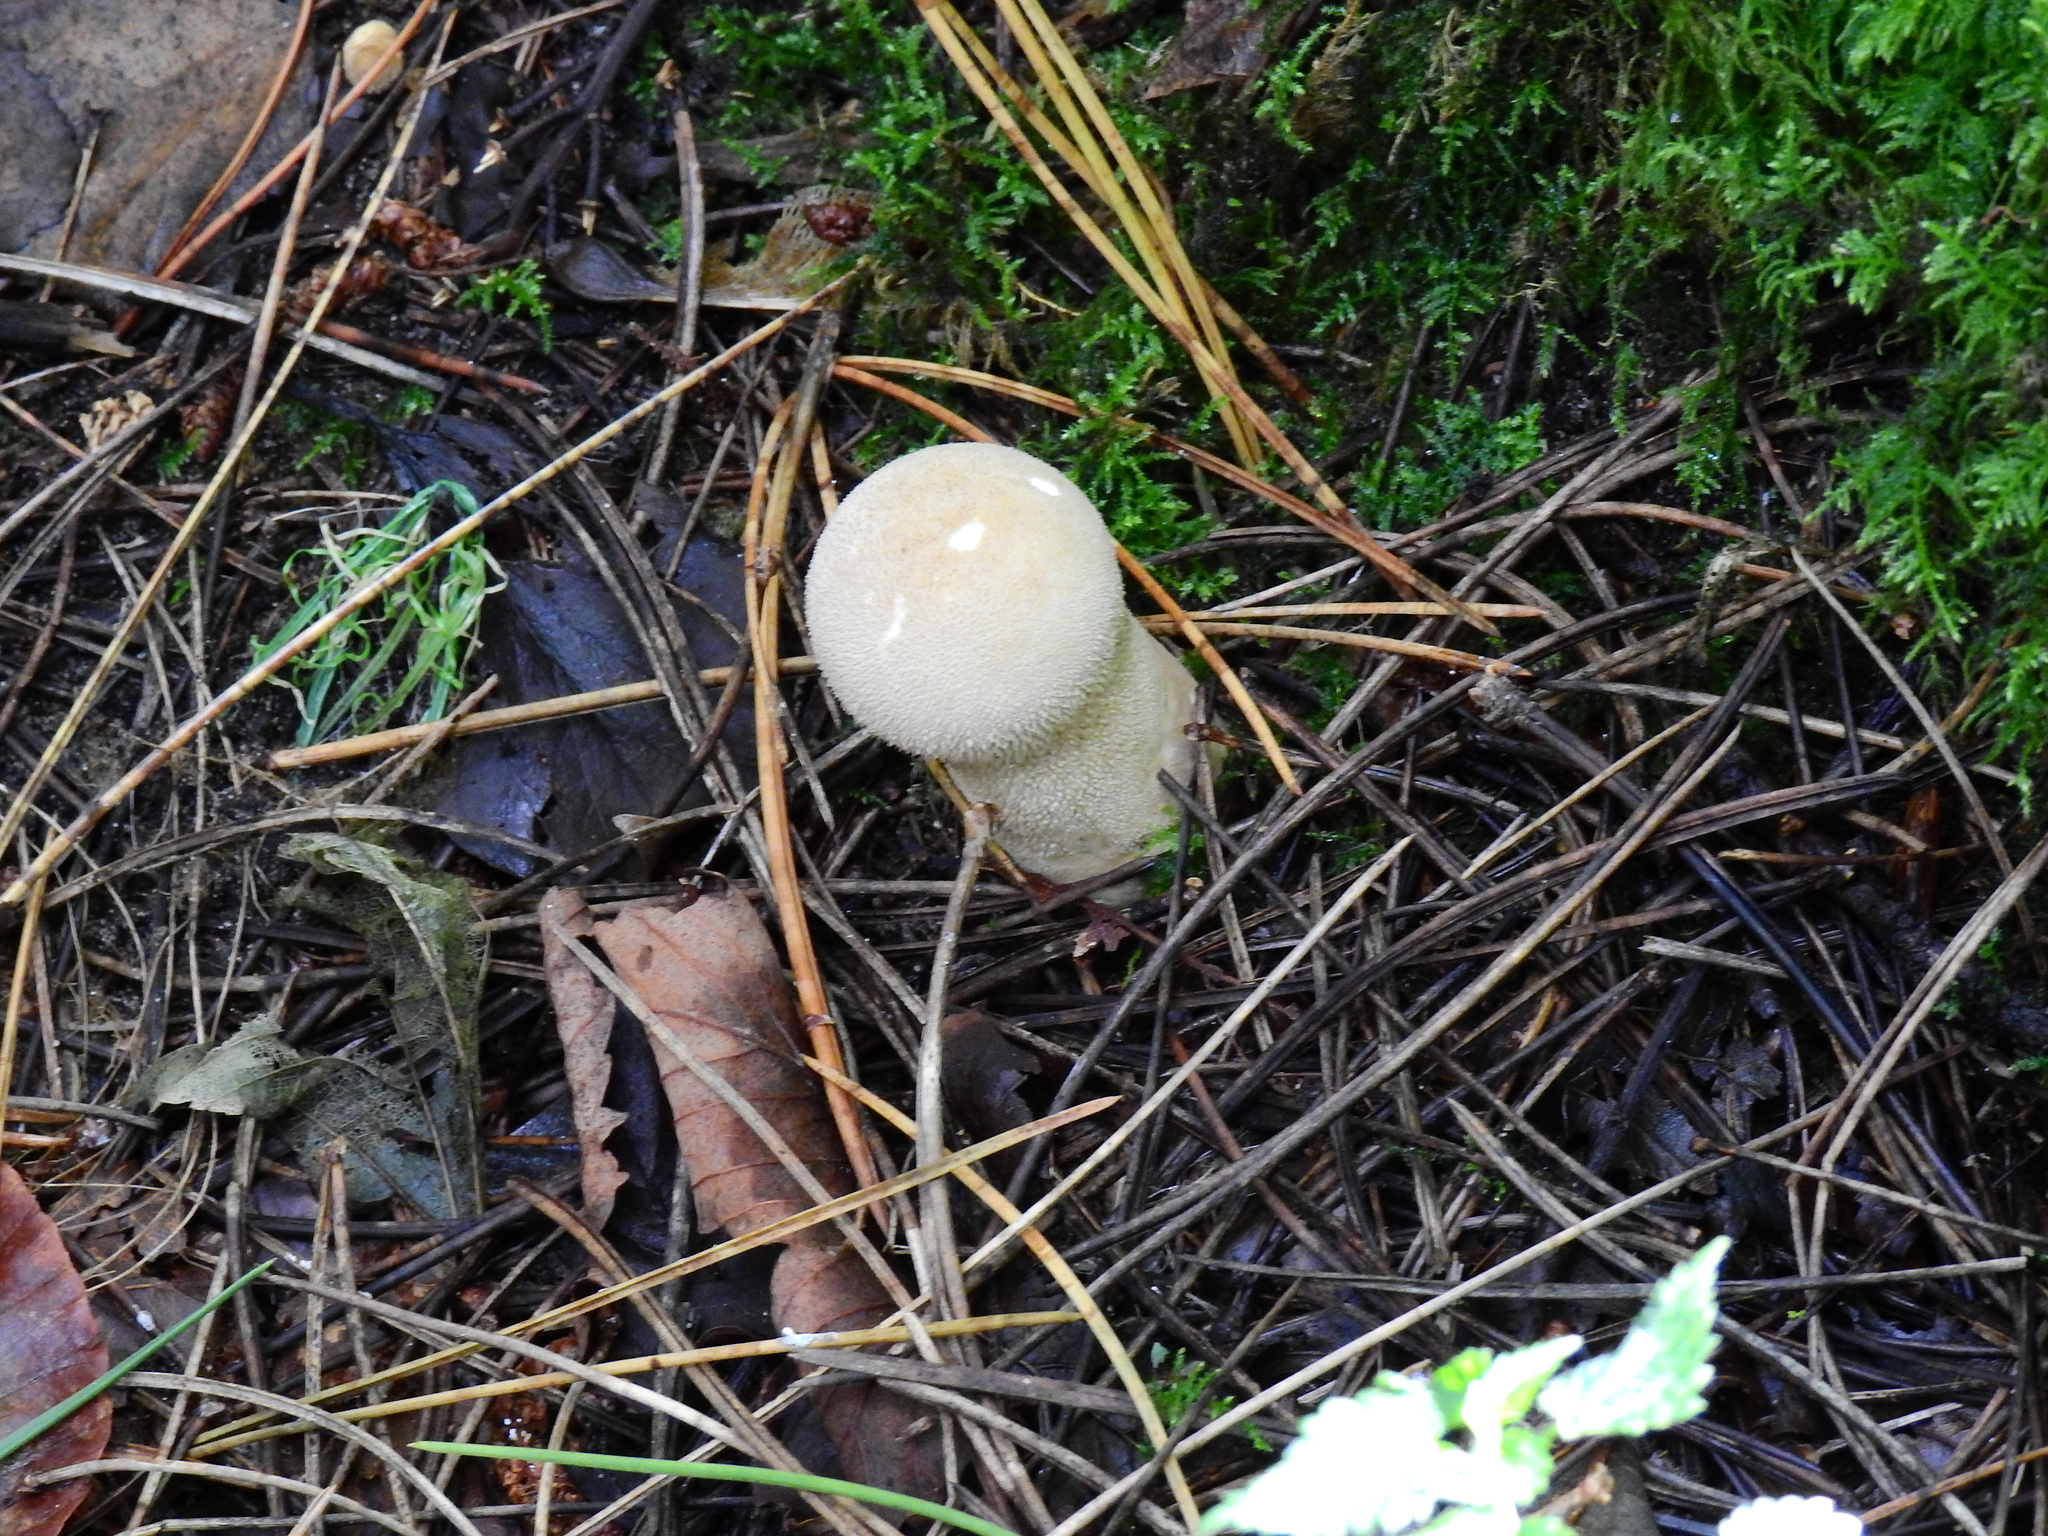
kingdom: Fungi
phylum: Basidiomycota
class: Agaricomycetes
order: Agaricales
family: Lycoperdaceae
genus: Apioperdon
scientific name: Apioperdon pyriforme
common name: Pear-shaped puffball
